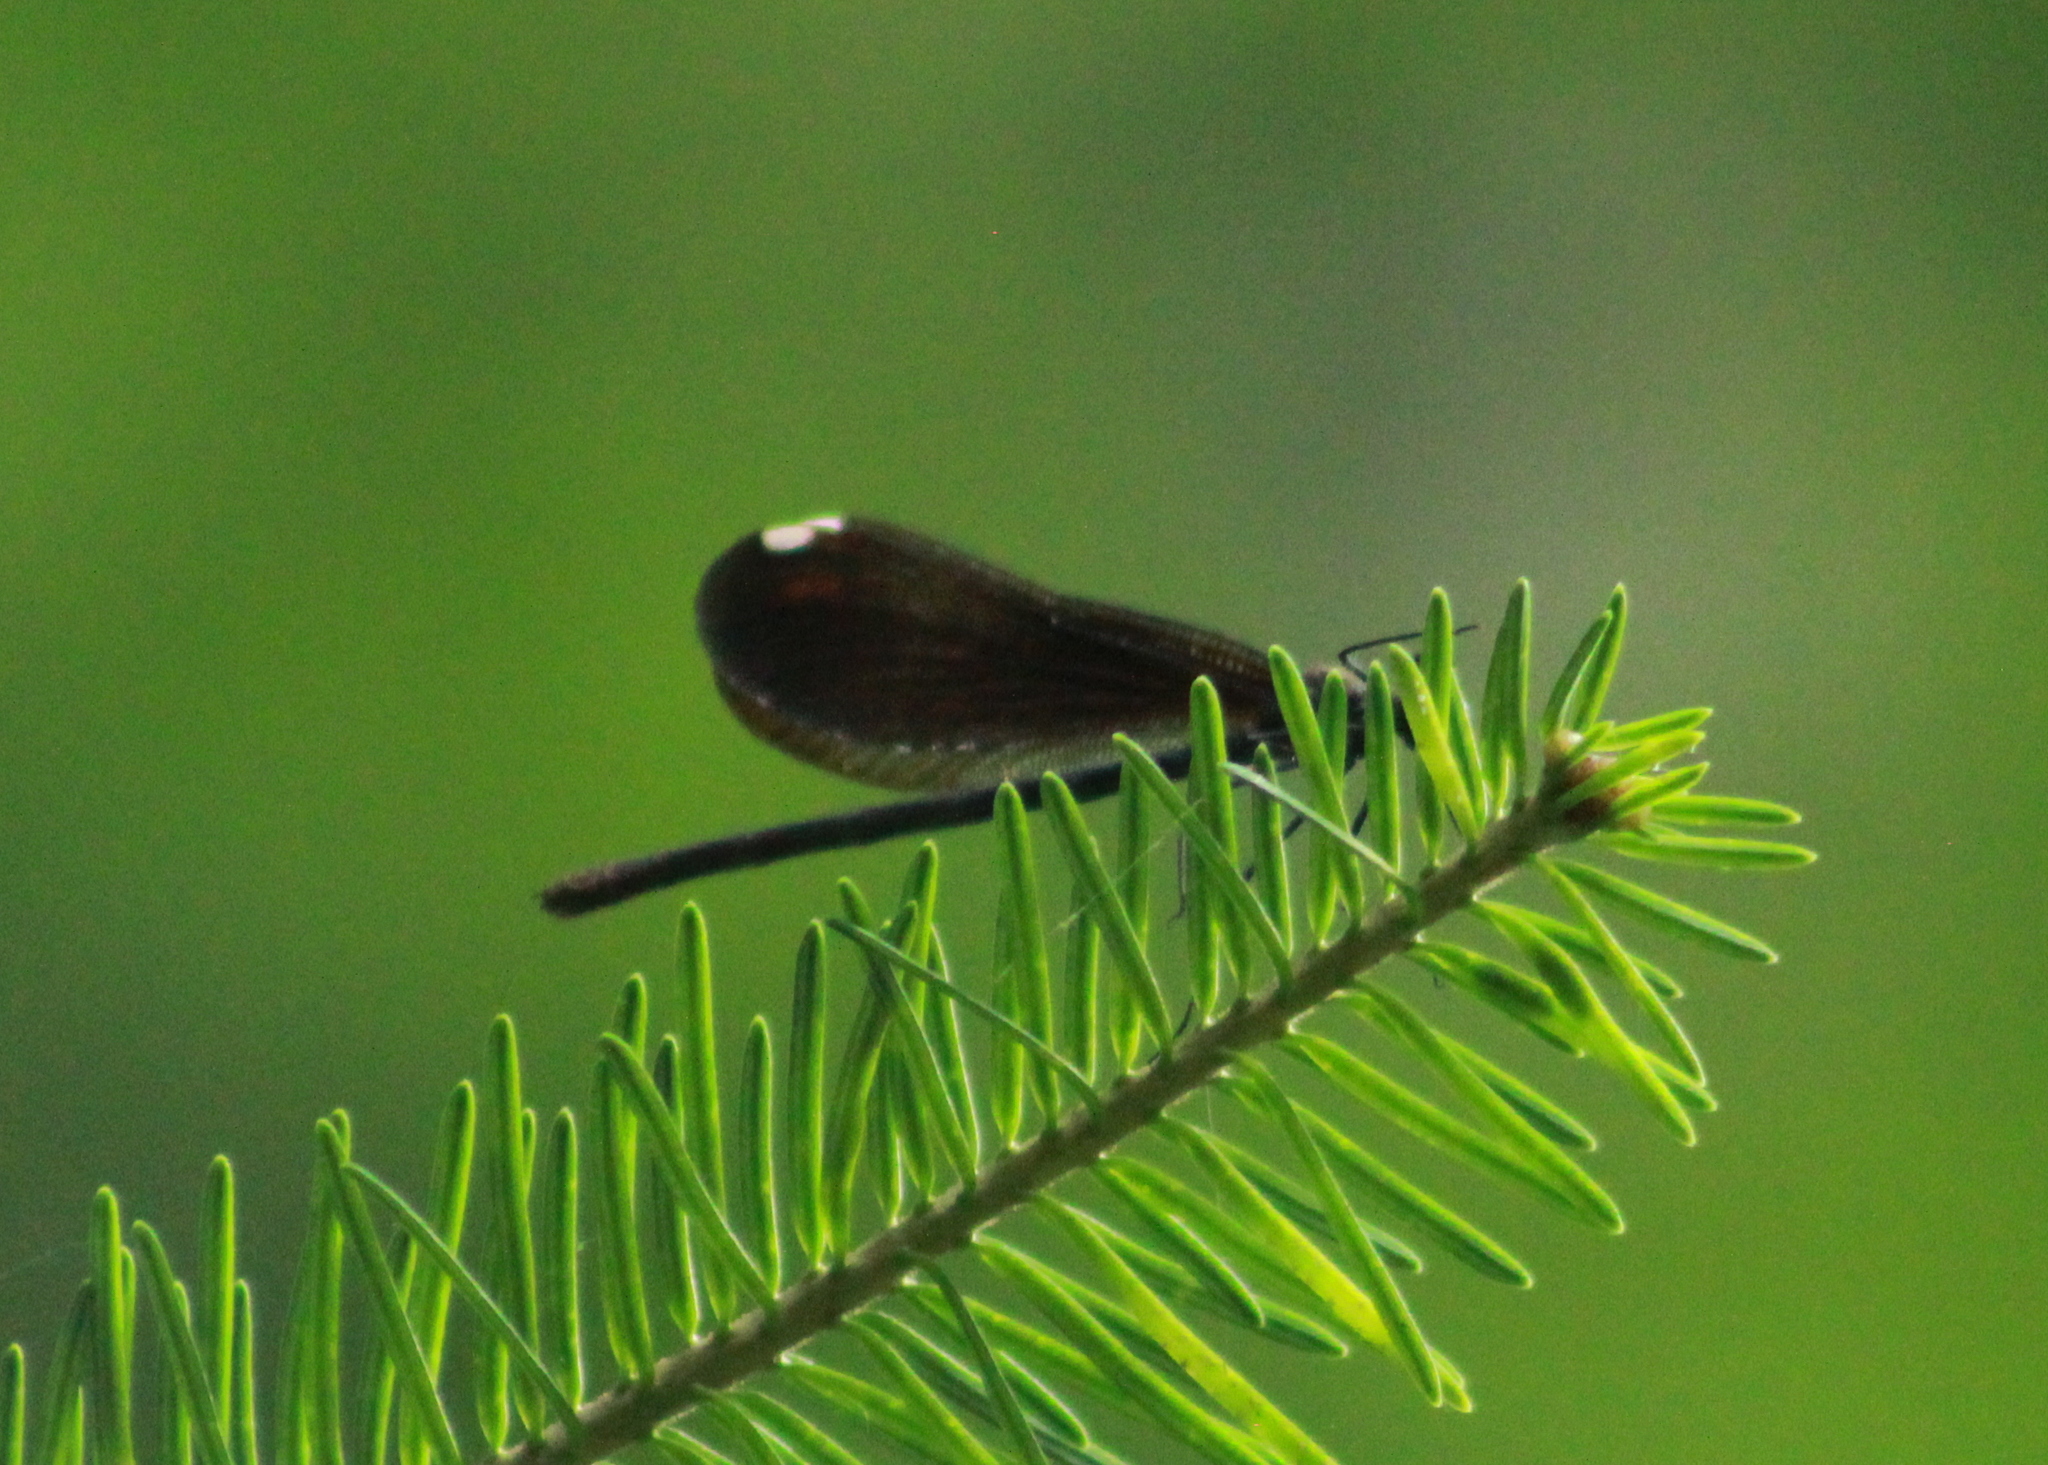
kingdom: Animalia
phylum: Arthropoda
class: Insecta
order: Odonata
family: Calopterygidae
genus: Calopteryx
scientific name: Calopteryx maculata
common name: Ebony jewelwing
